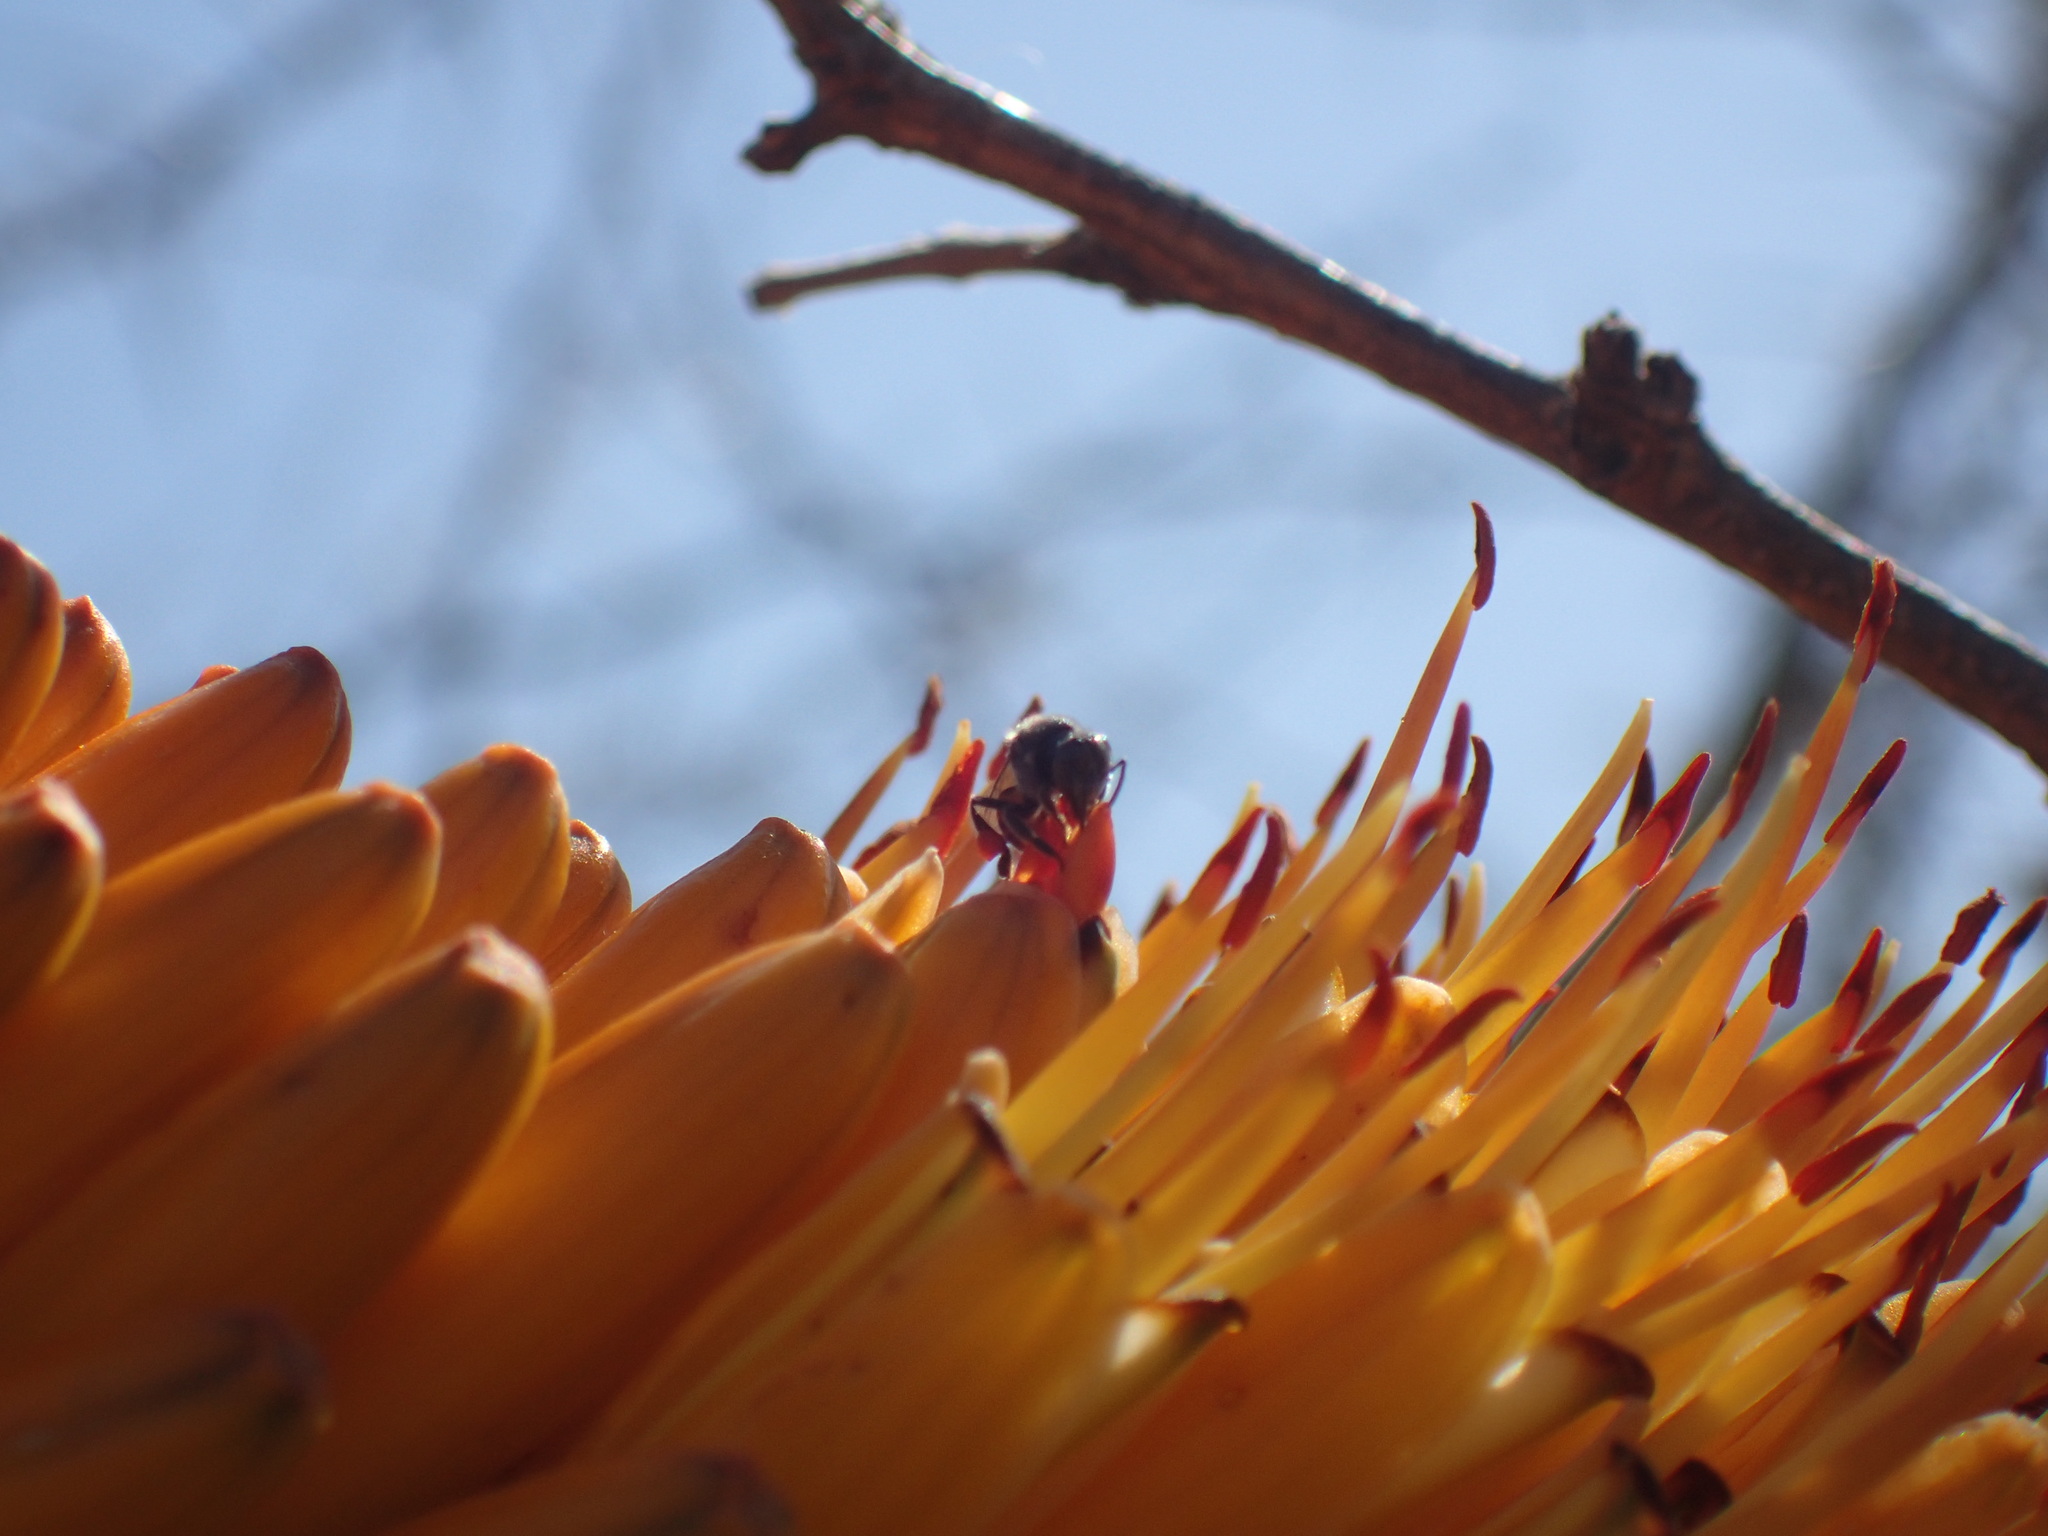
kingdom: Animalia
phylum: Arthropoda
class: Insecta
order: Hymenoptera
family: Apidae
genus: Plebeina
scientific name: Plebeina armata
